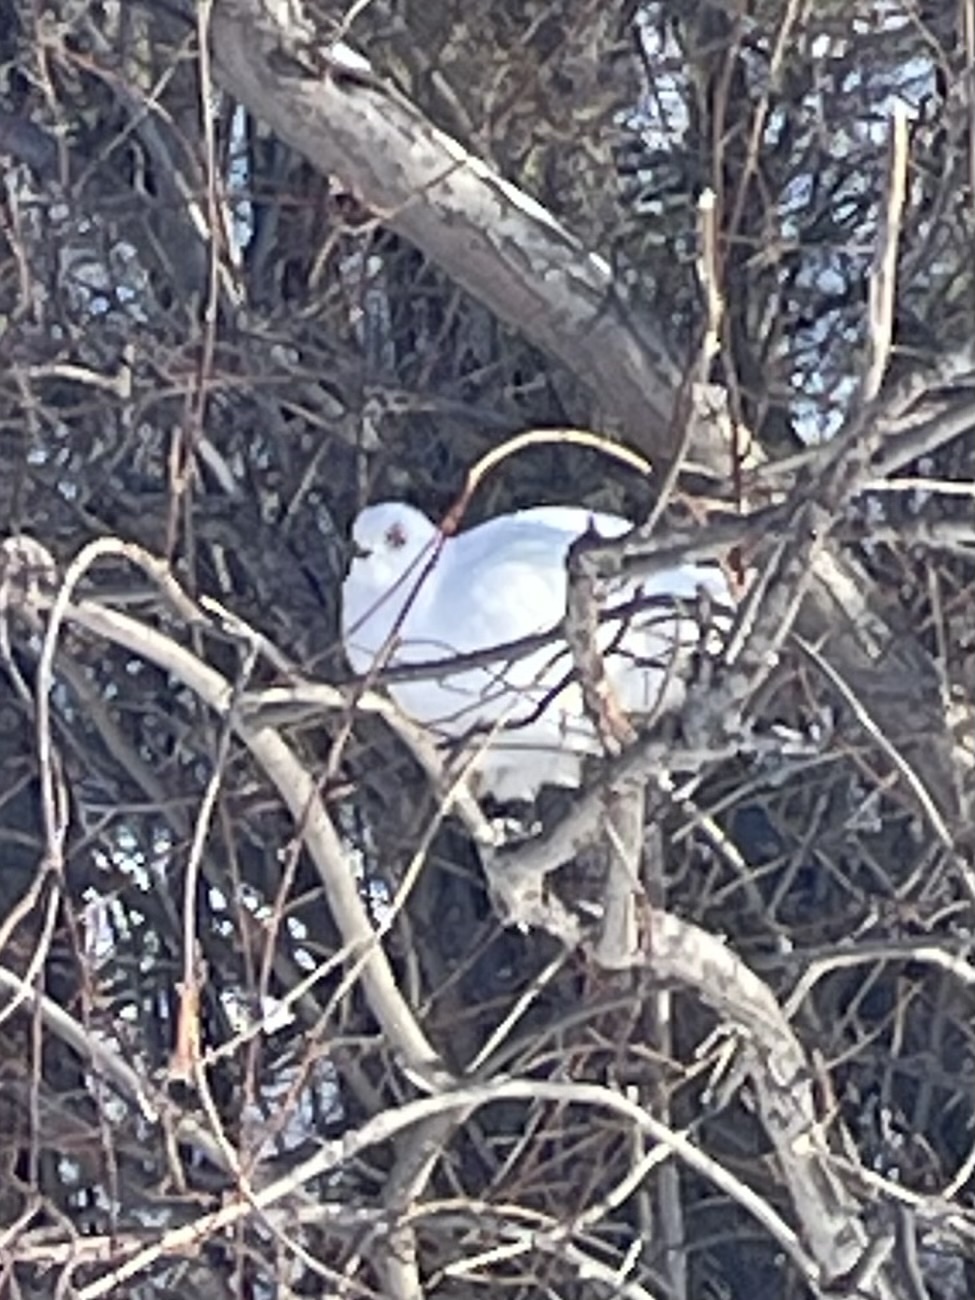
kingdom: Animalia
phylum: Chordata
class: Aves
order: Galliformes
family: Phasianidae
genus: Lagopus
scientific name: Lagopus lagopus
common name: Willow ptarmigan
